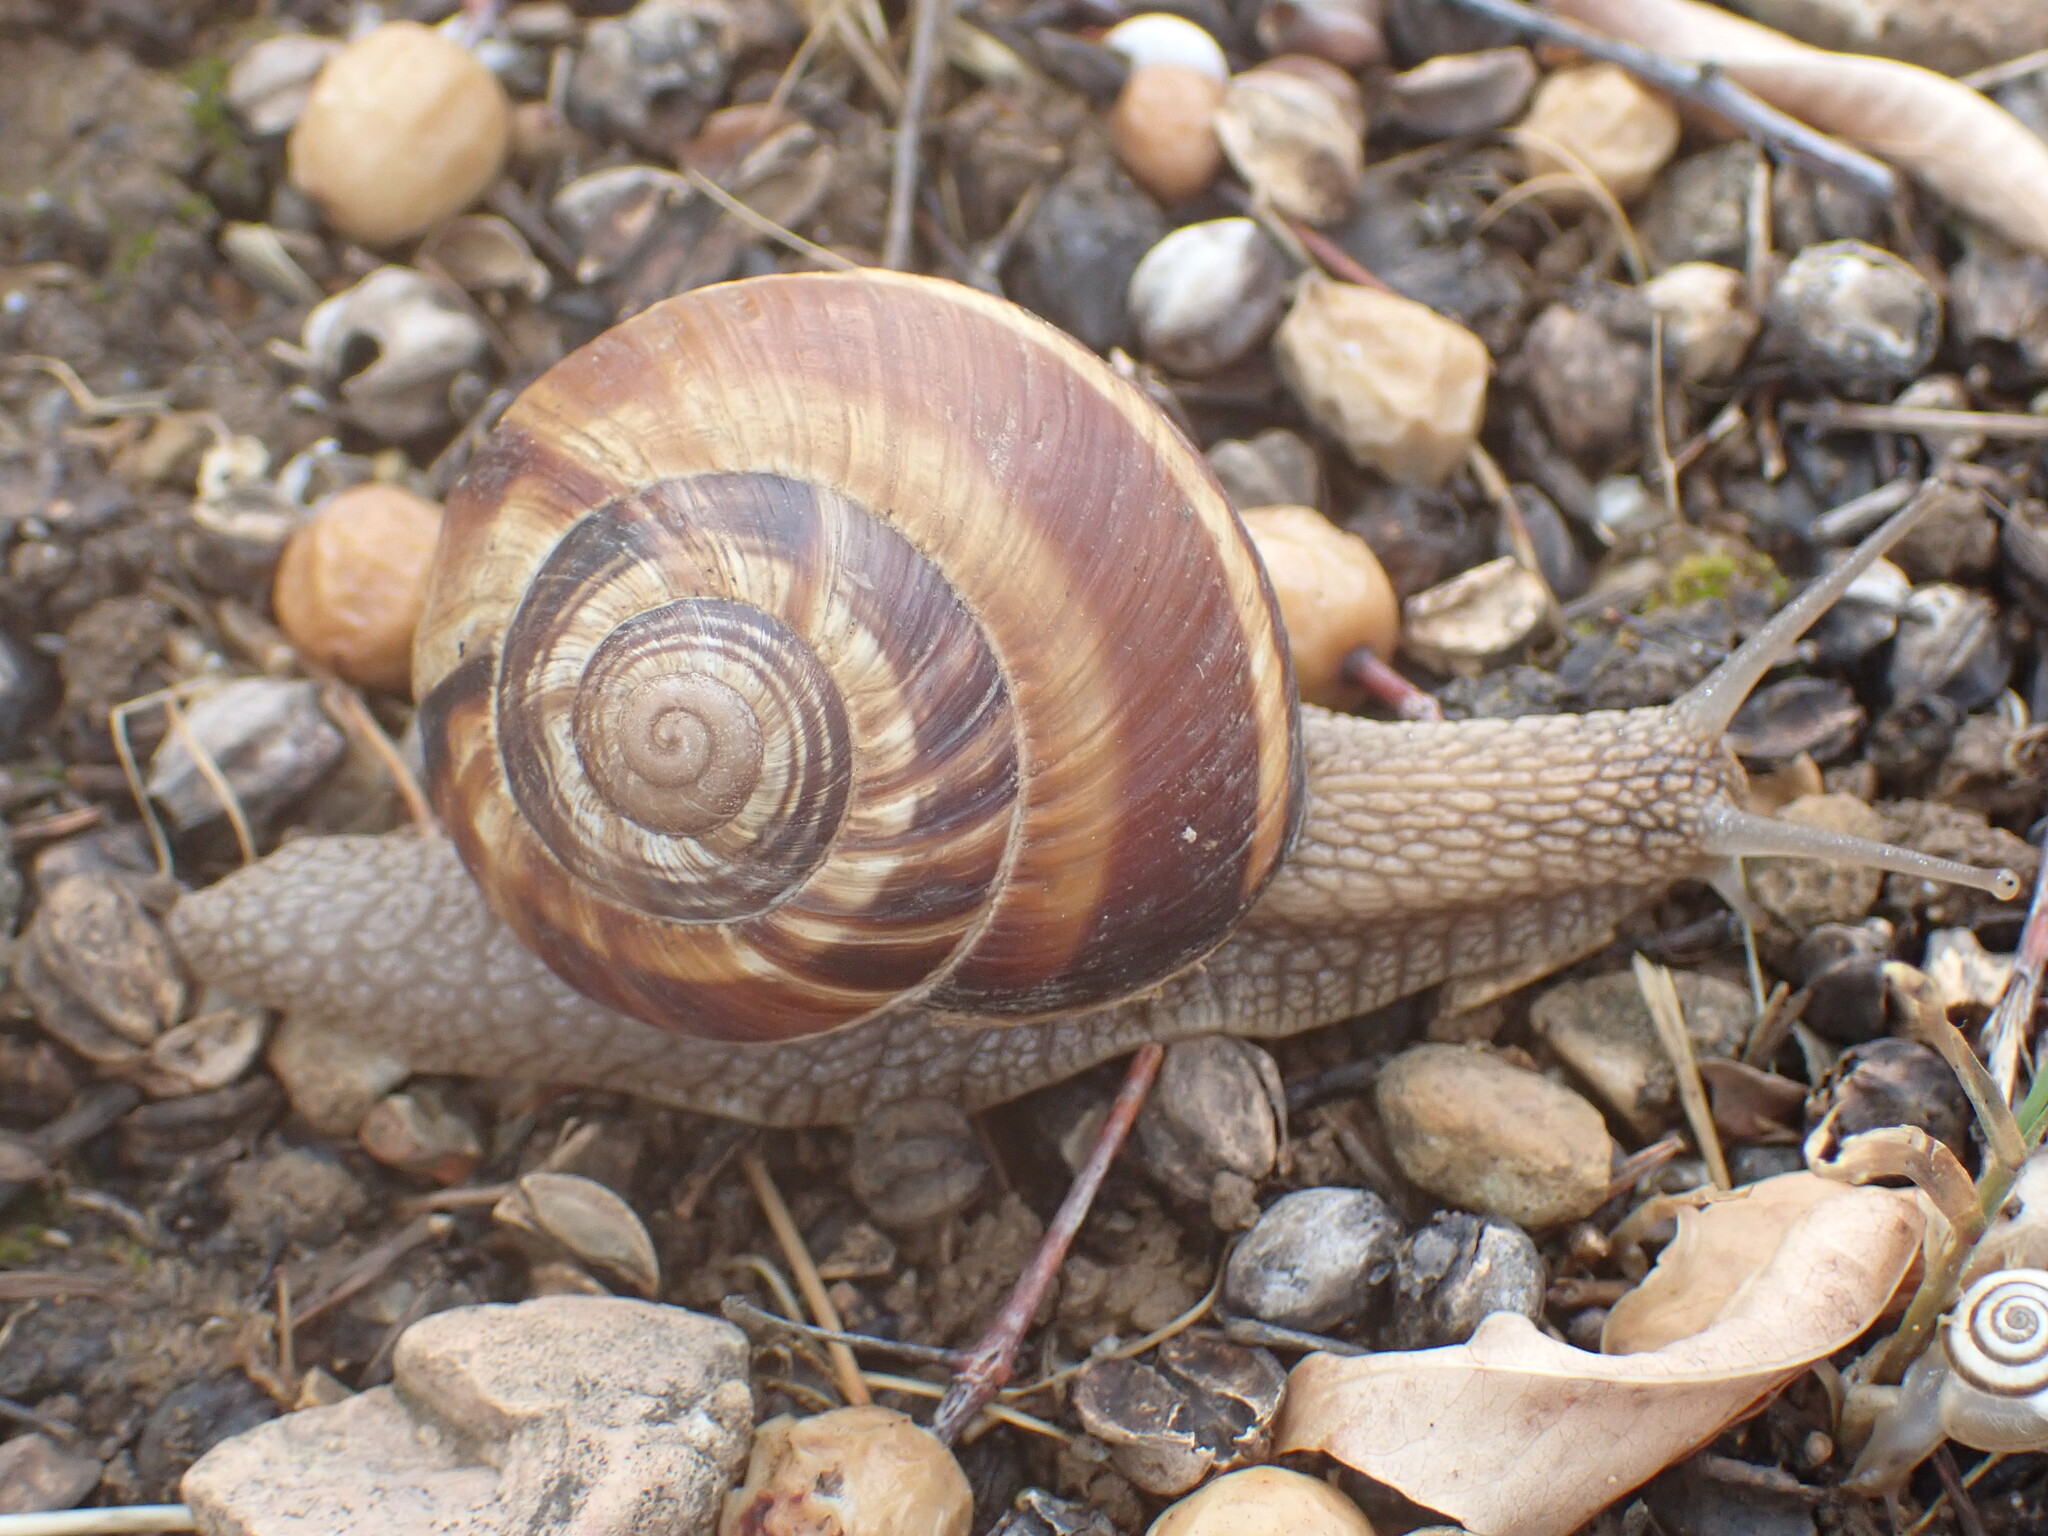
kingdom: Animalia
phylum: Mollusca
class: Gastropoda
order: Stylommatophora
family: Helicidae
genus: Helix
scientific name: Helix lucorum
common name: Turkish snail
